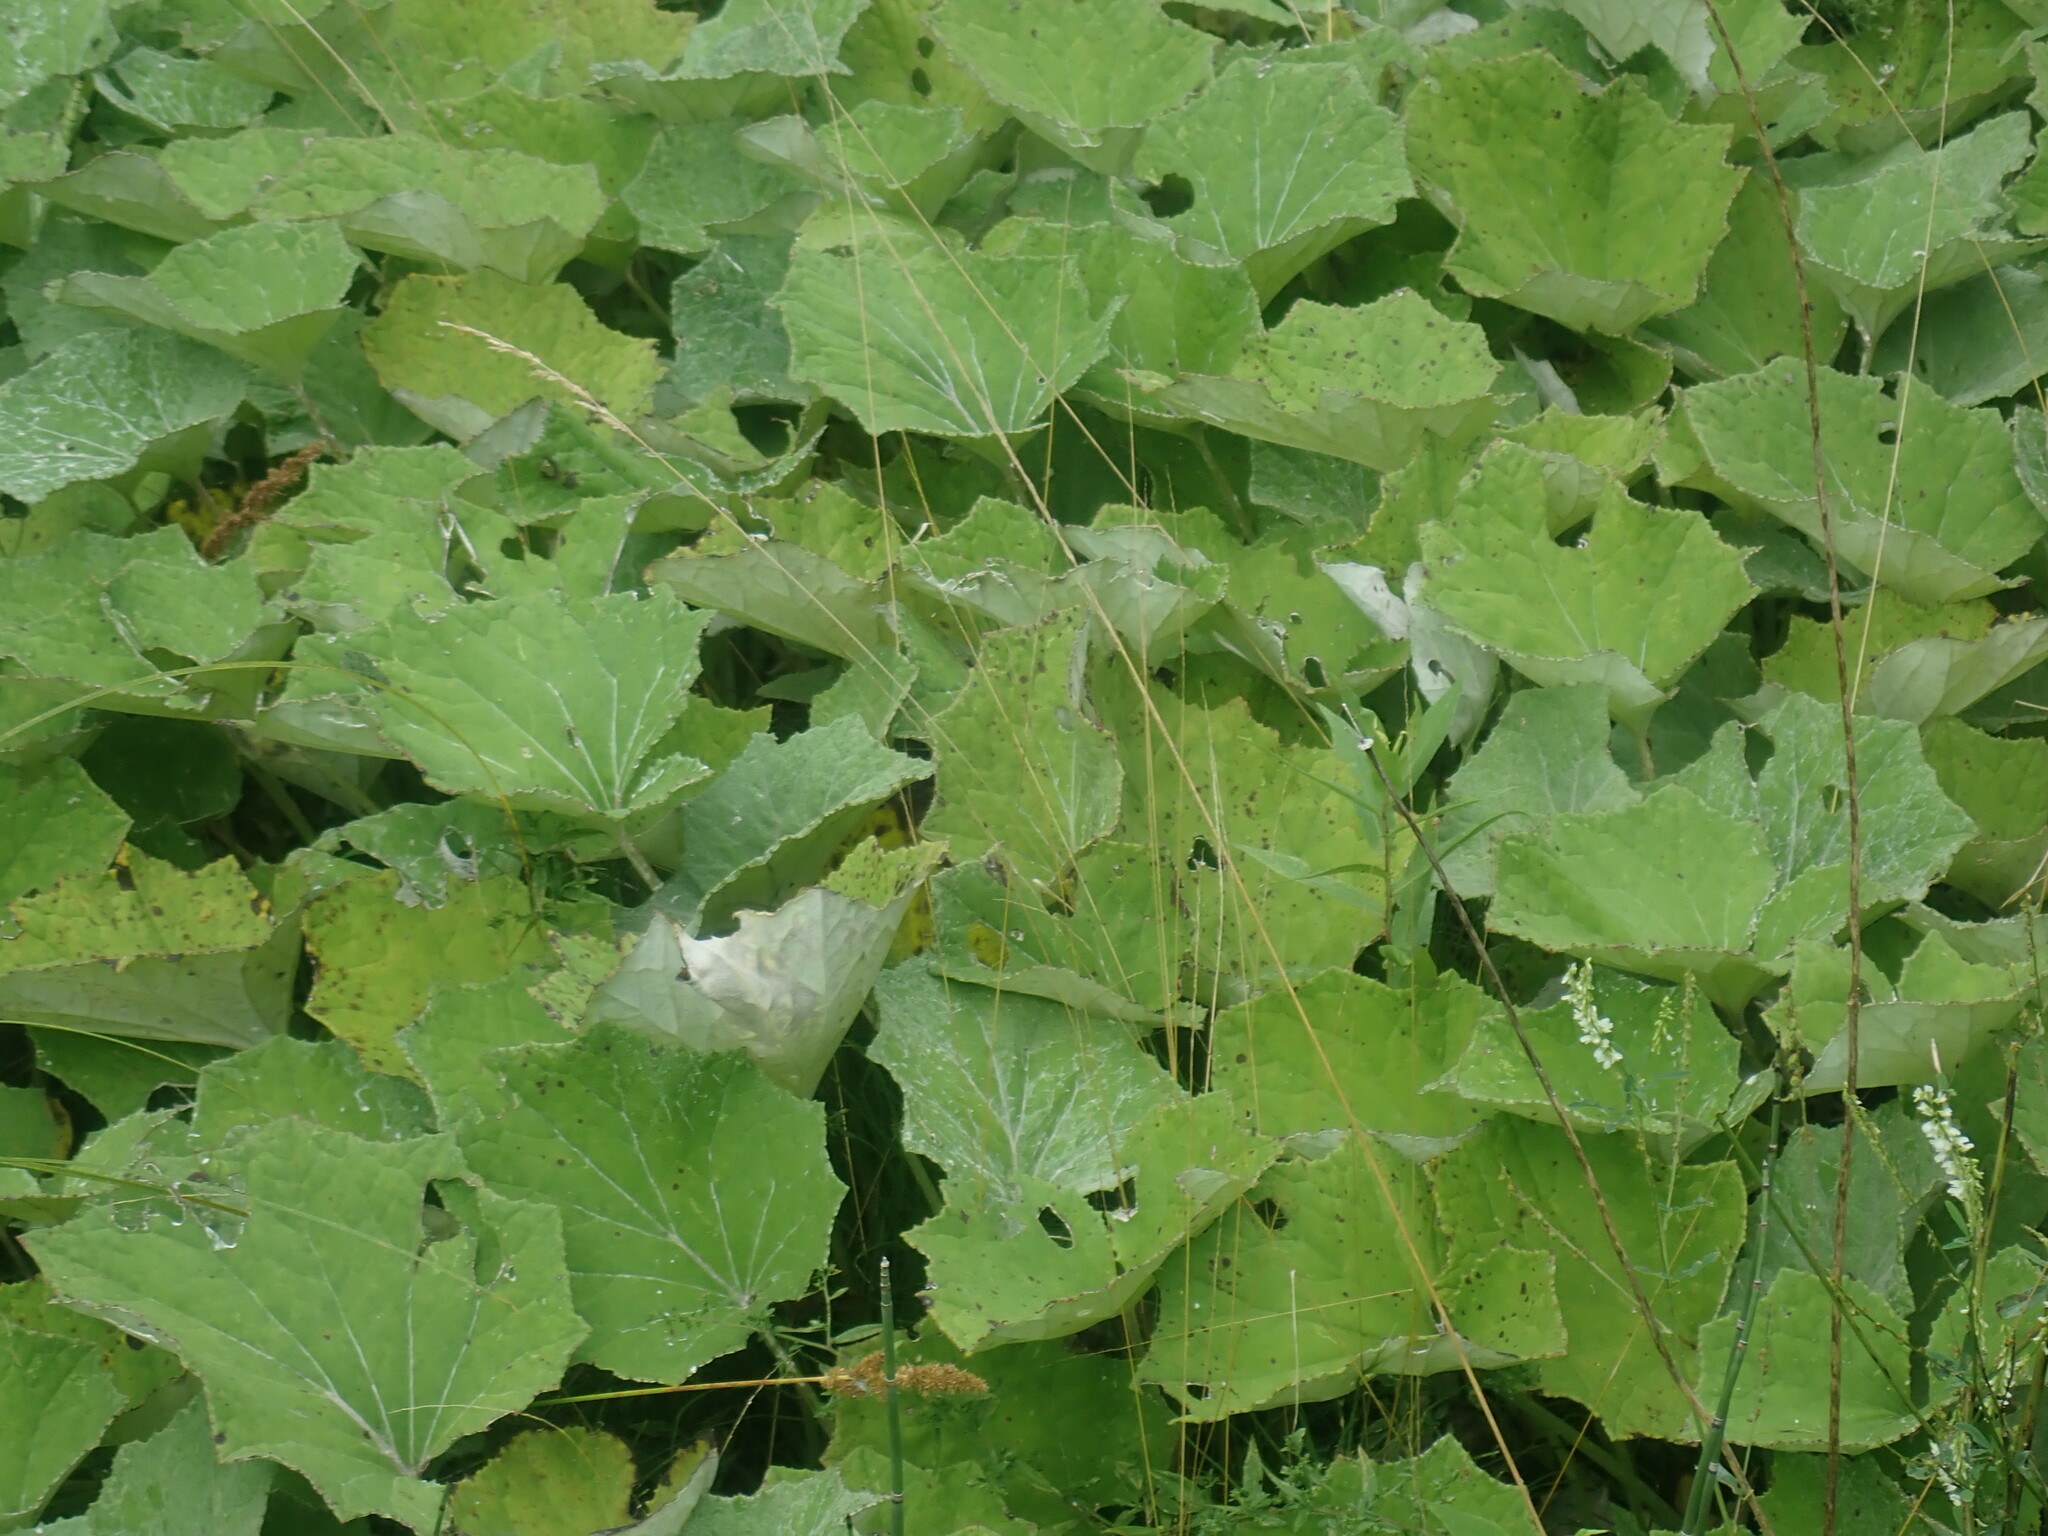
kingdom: Plantae
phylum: Tracheophyta
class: Magnoliopsida
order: Asterales
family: Asteraceae
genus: Tussilago
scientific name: Tussilago farfara
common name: Coltsfoot
